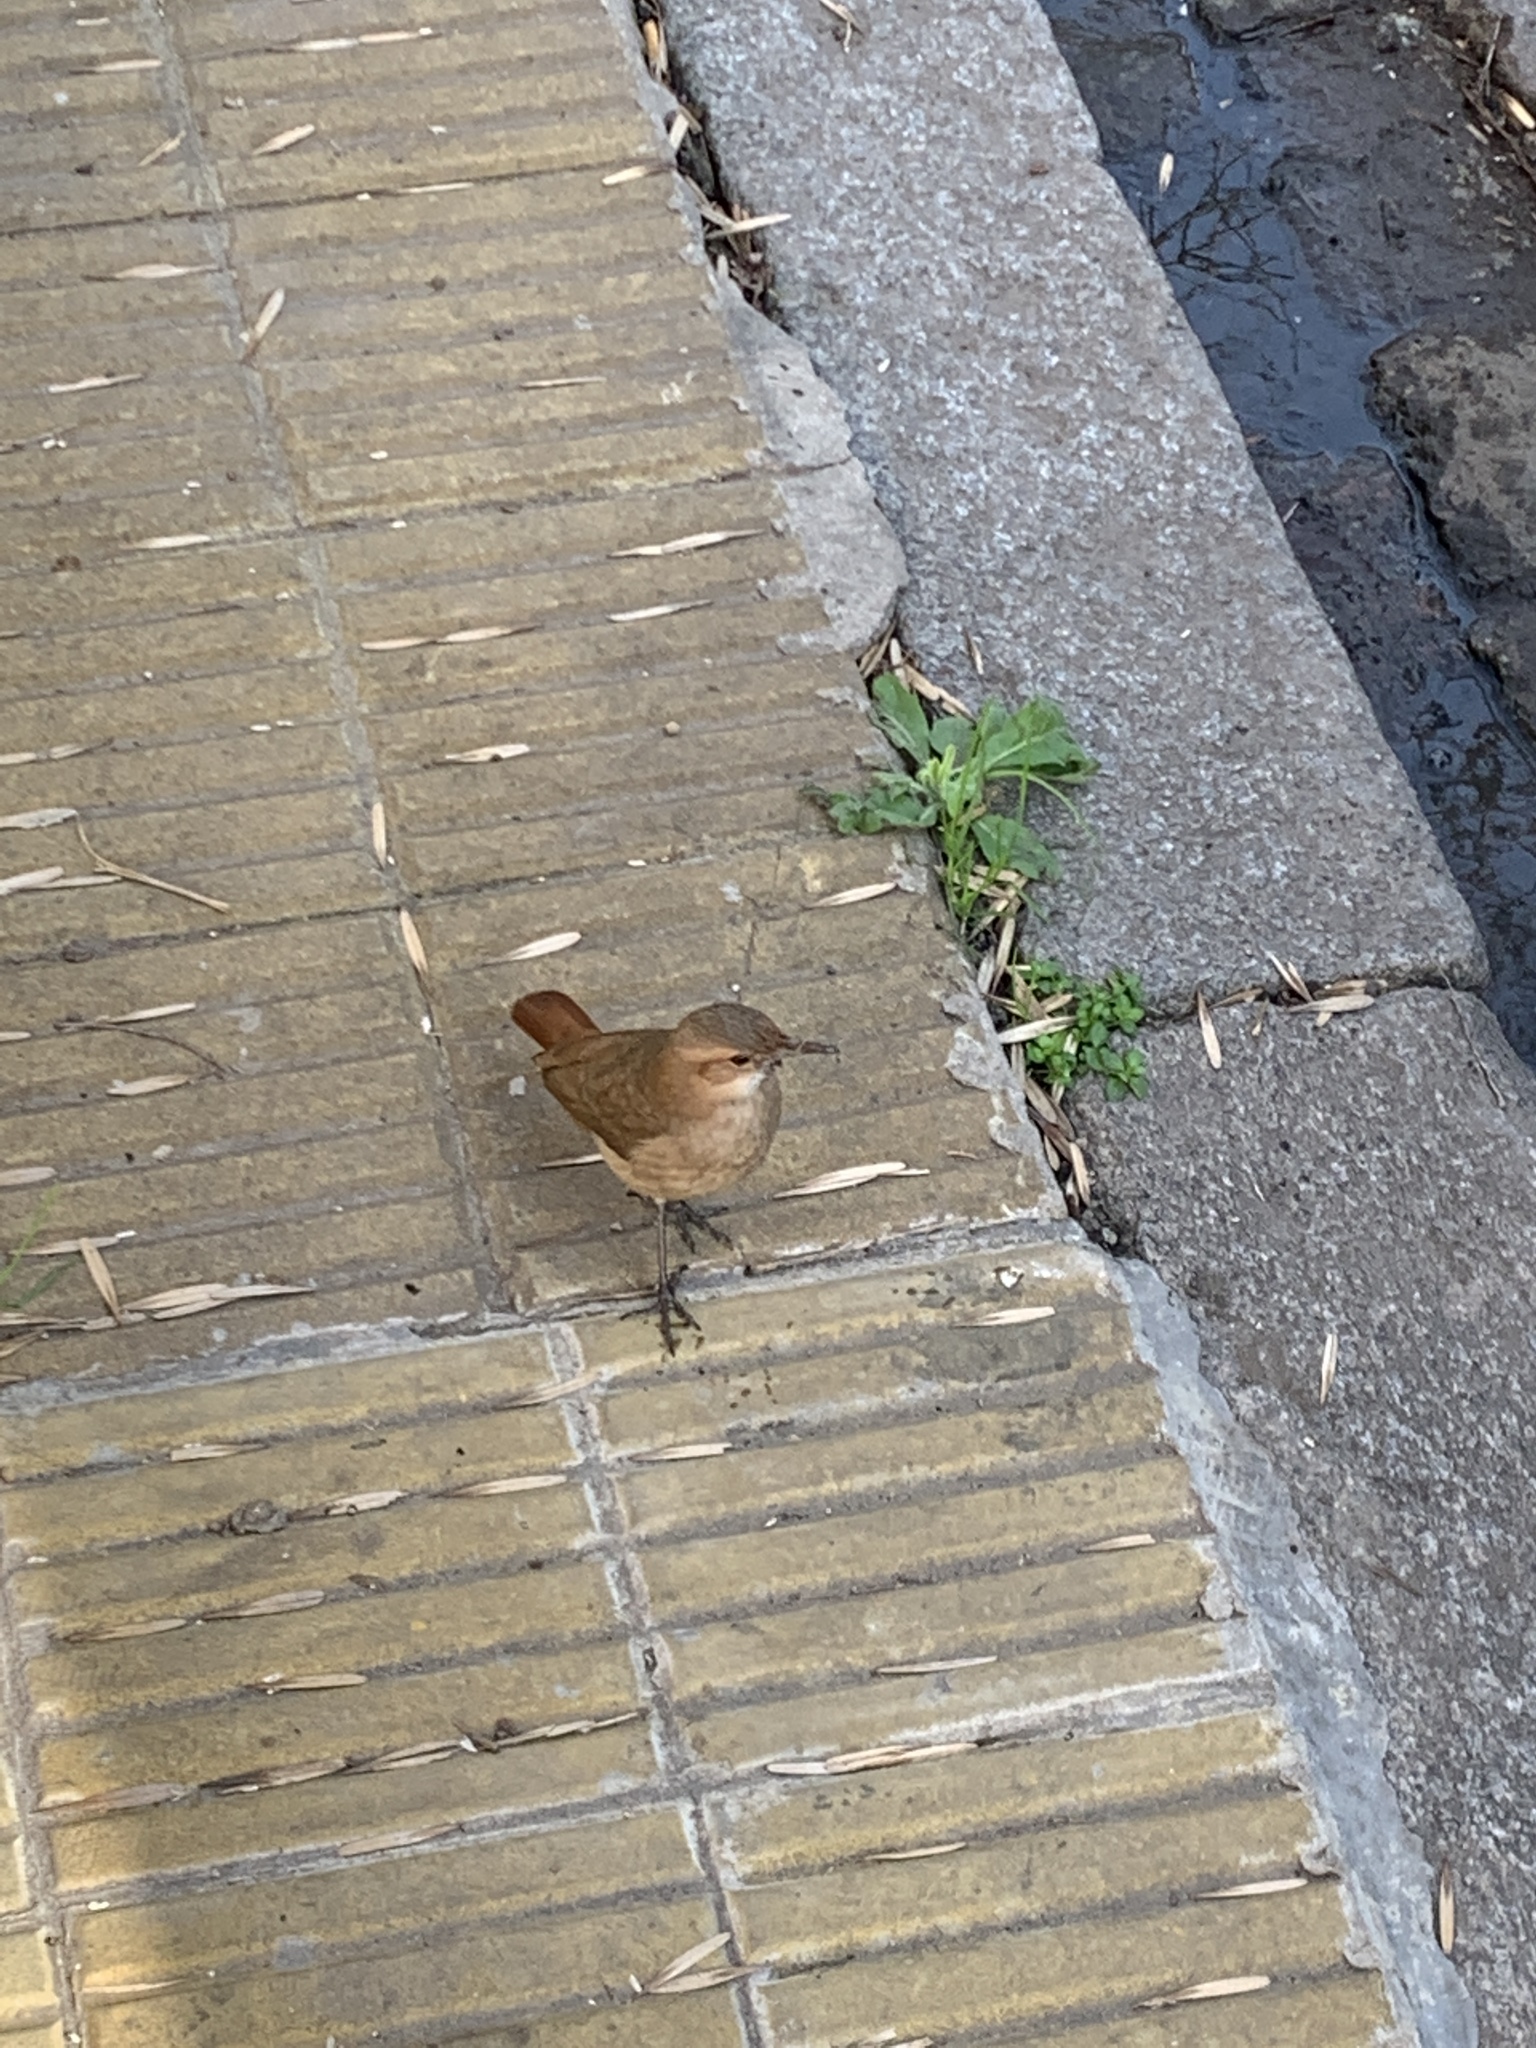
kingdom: Animalia
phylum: Chordata
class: Aves
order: Passeriformes
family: Furnariidae
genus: Furnarius
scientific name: Furnarius rufus
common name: Rufous hornero
